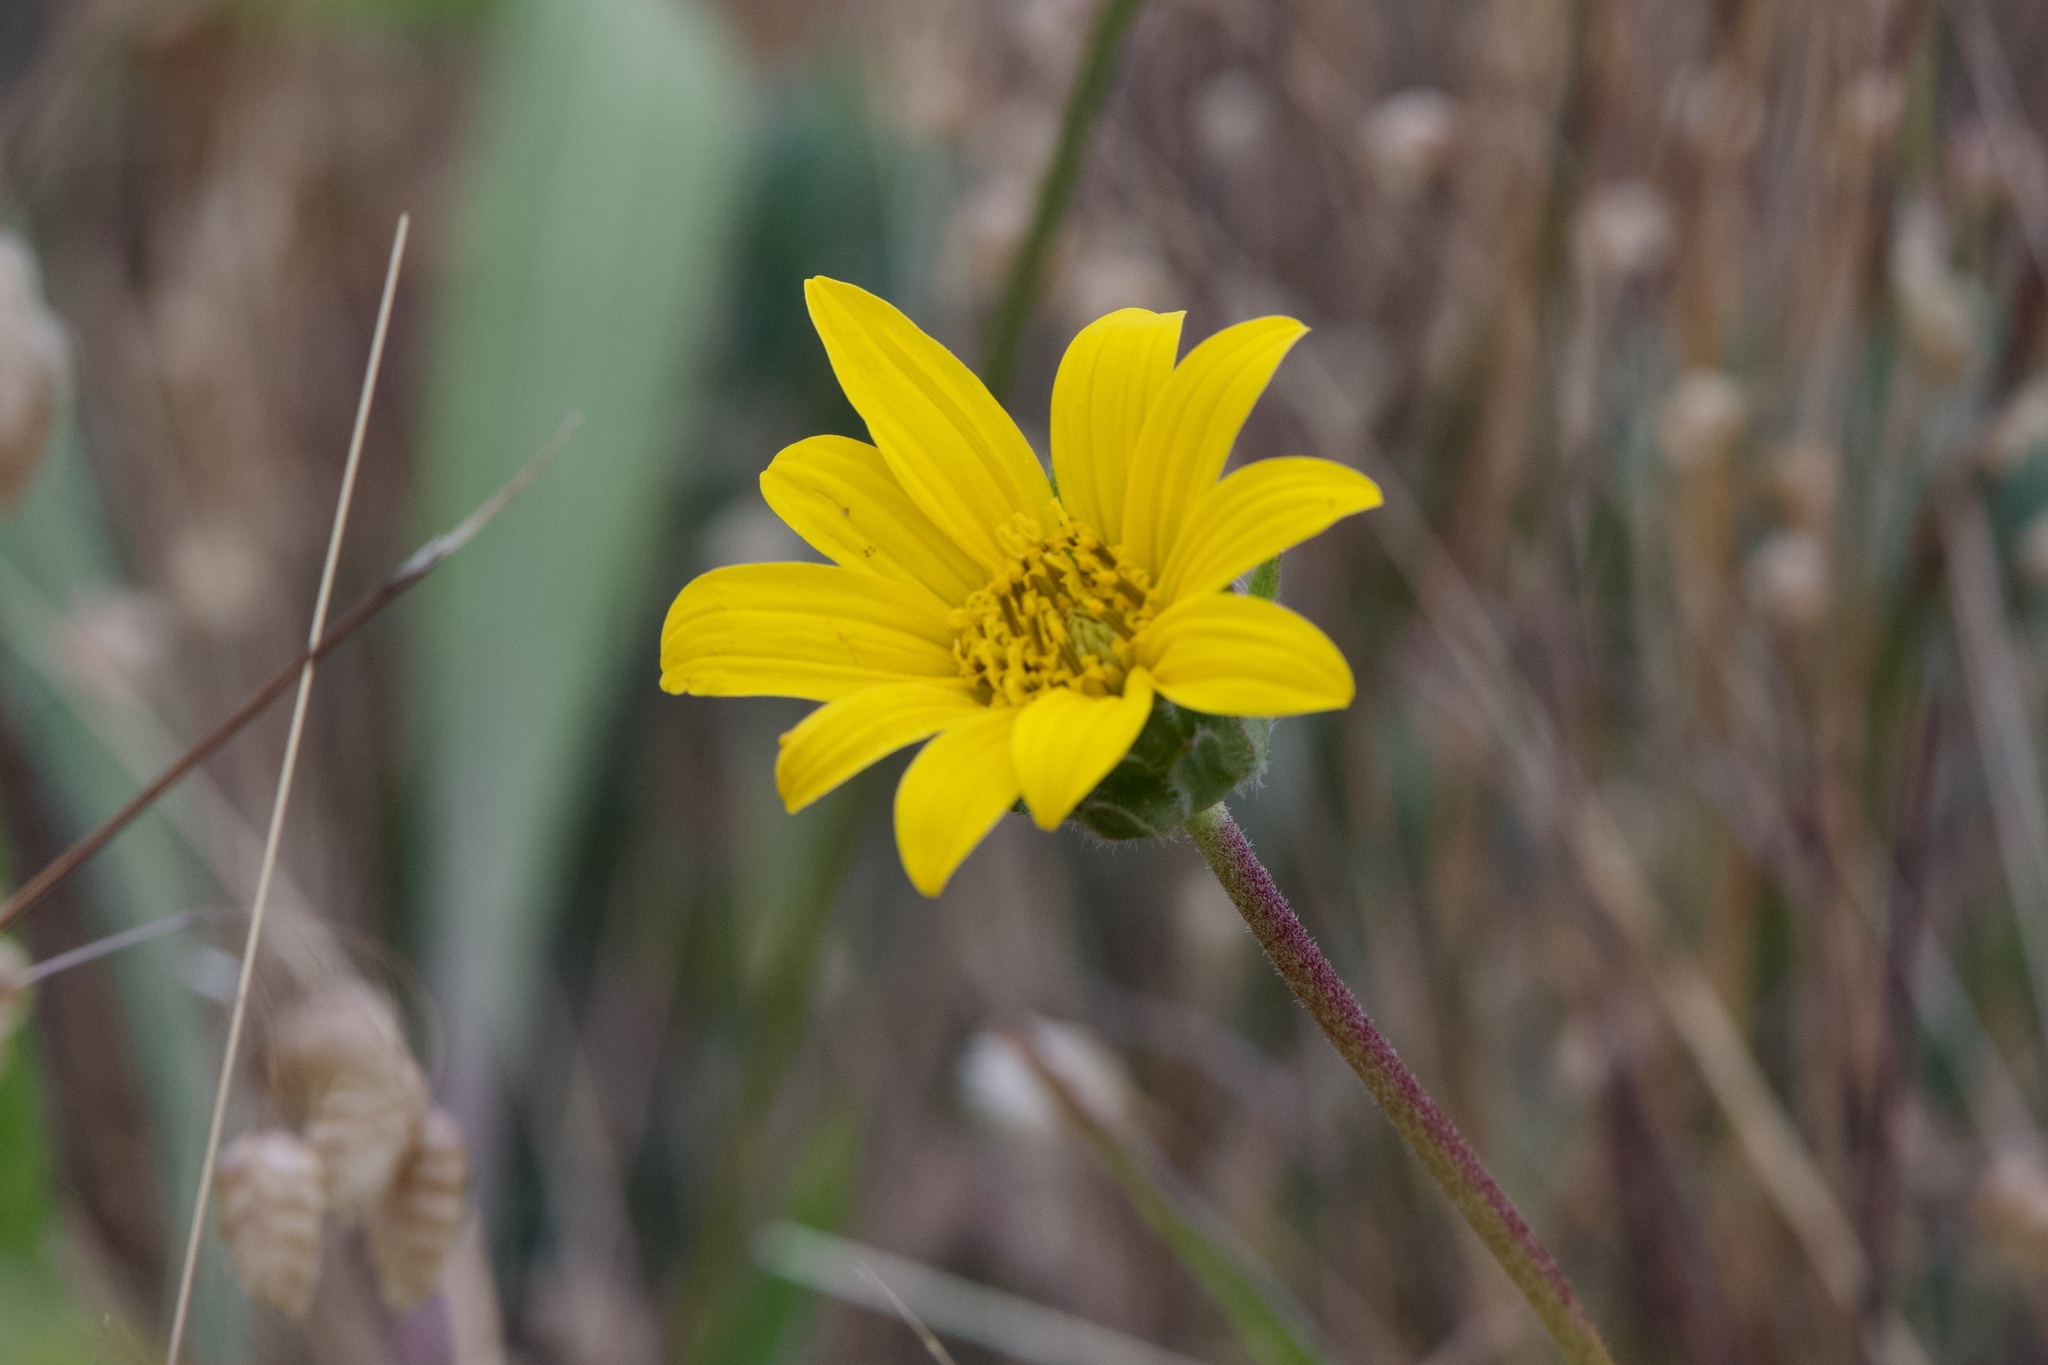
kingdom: Plantae
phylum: Tracheophyta
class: Magnoliopsida
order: Asterales
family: Asteraceae
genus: Wyethia
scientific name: Wyethia angustifolia
